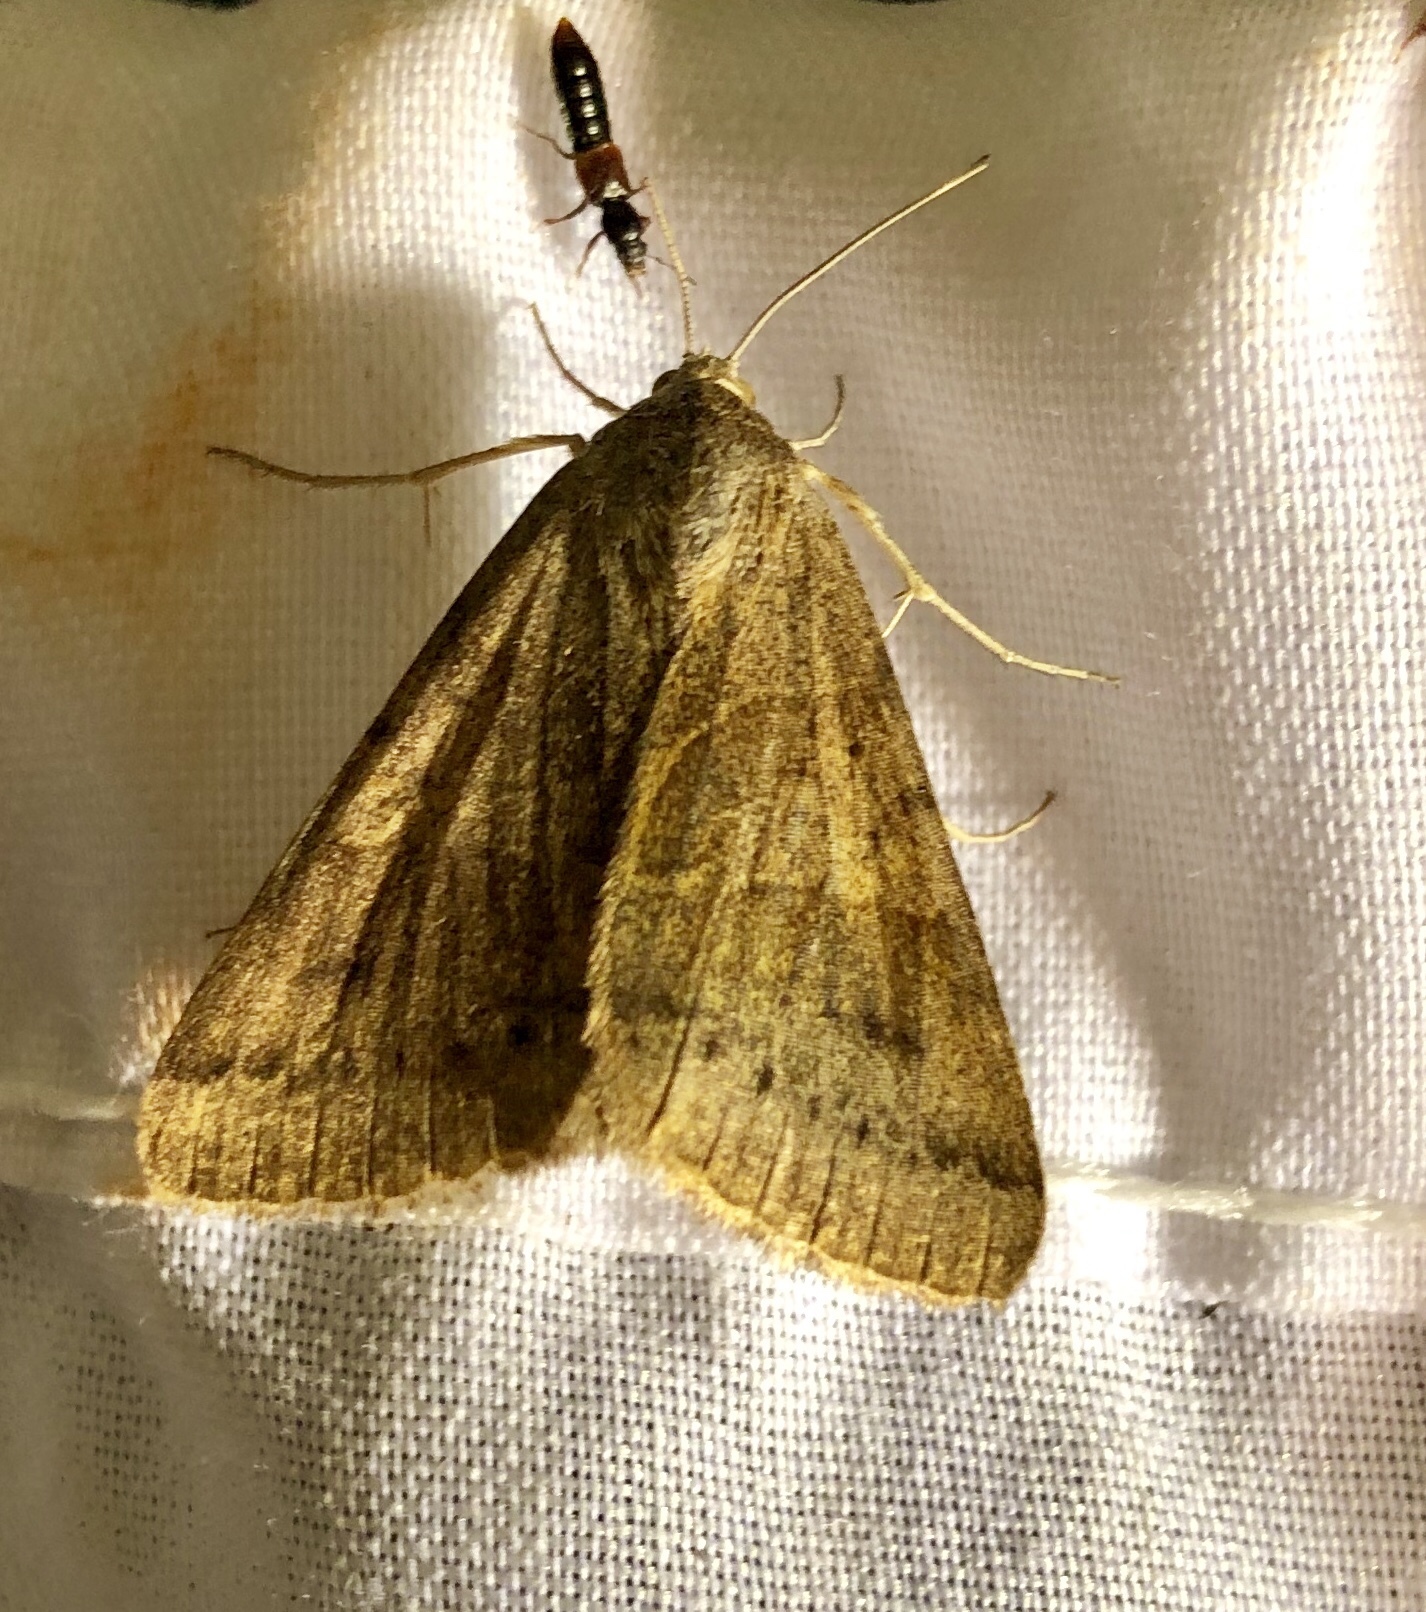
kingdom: Animalia
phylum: Arthropoda
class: Insecta
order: Lepidoptera
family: Erebidae
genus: Caenurgina
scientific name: Caenurgina erechtea
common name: Forage looper moth
